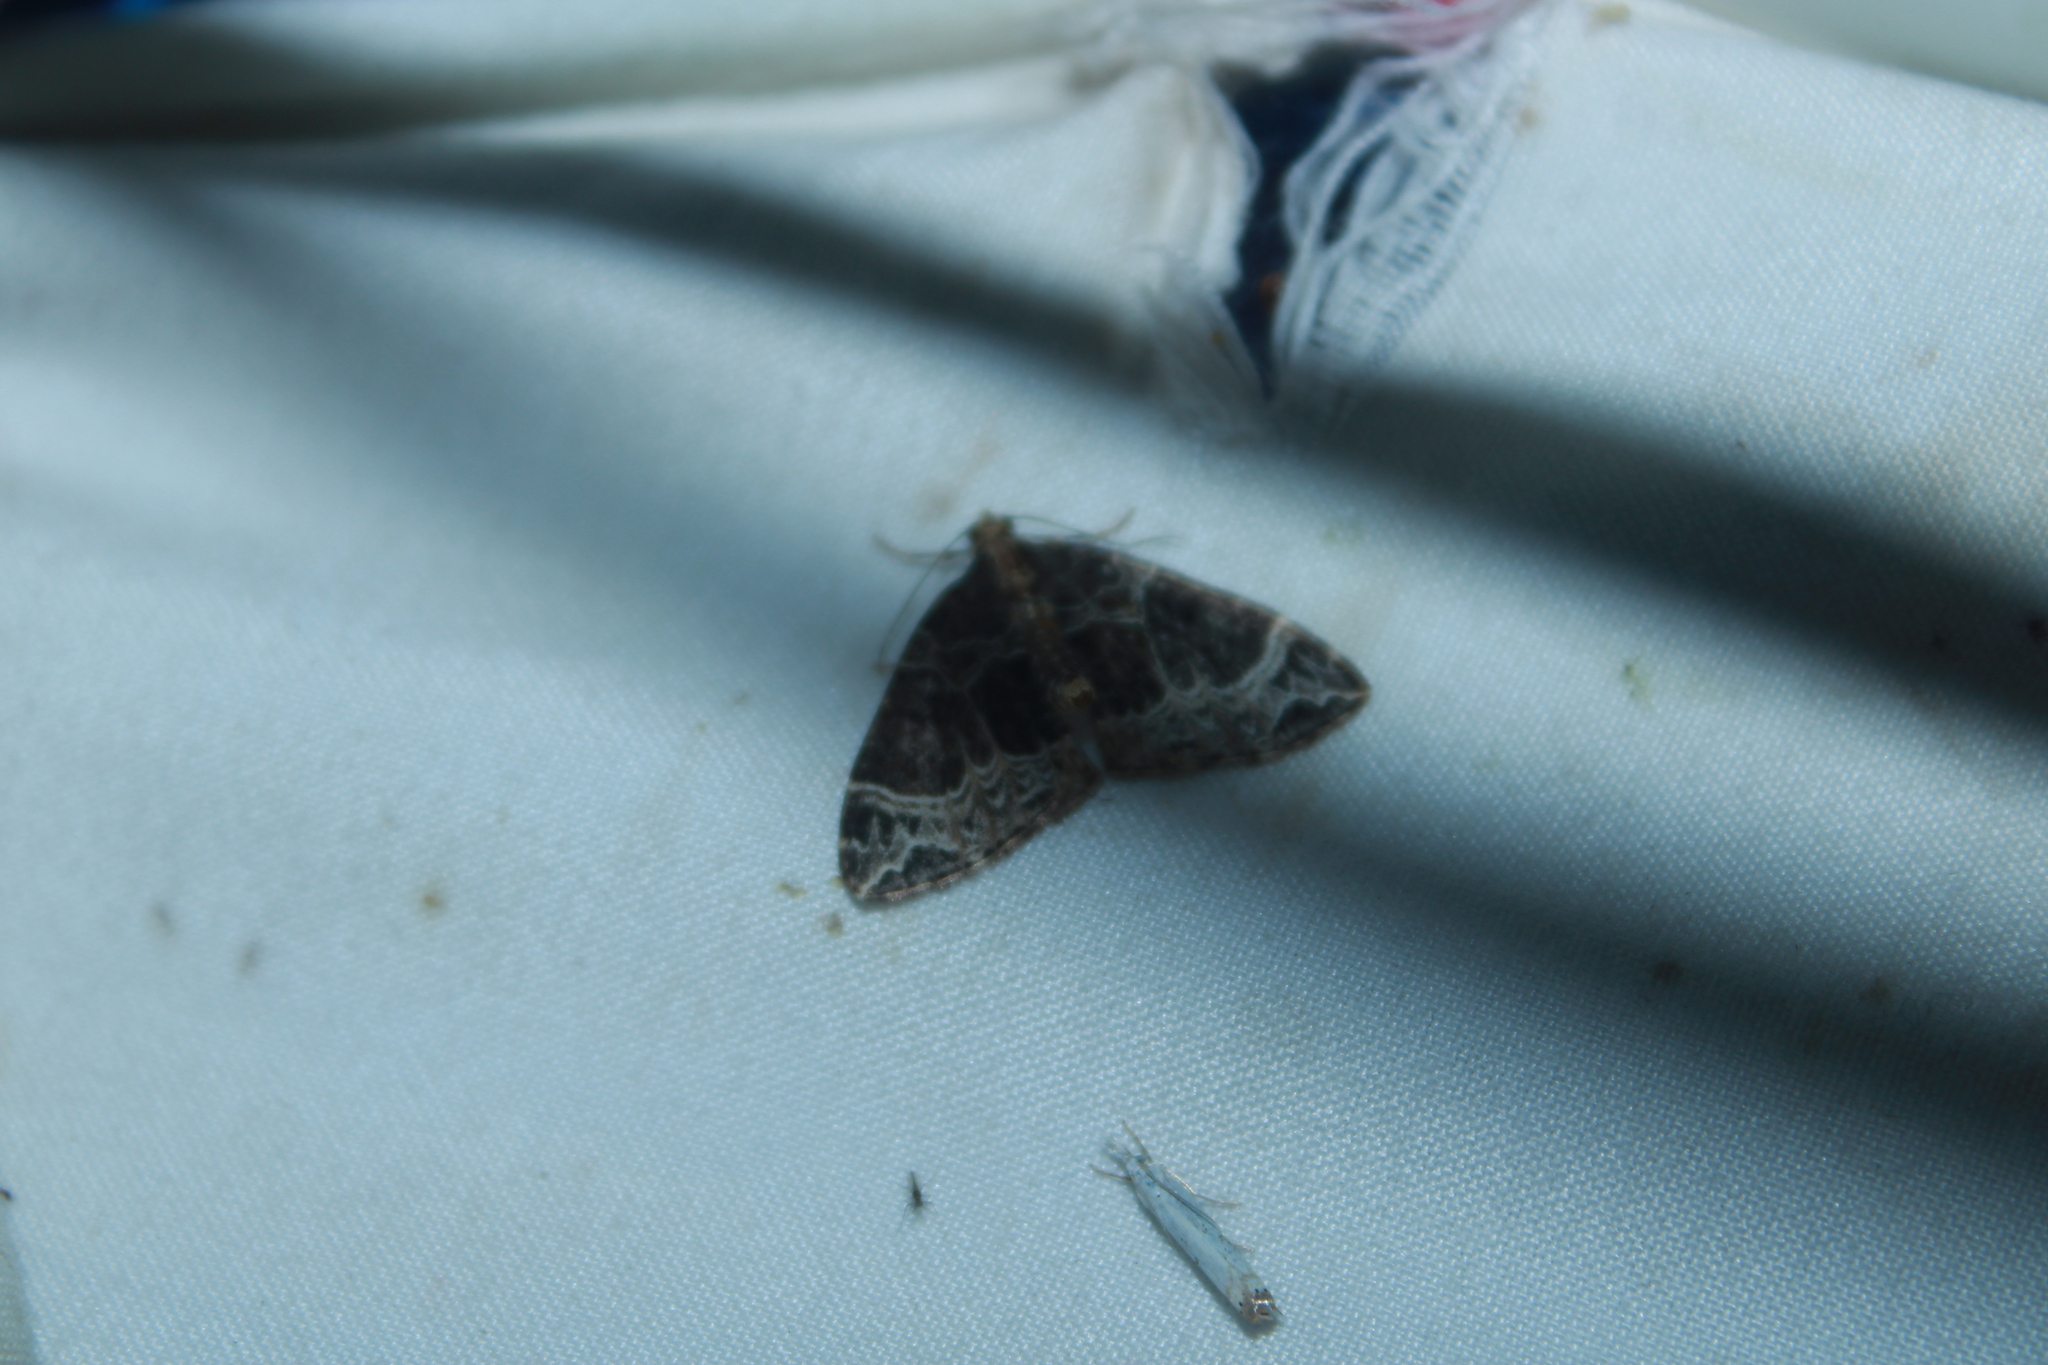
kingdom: Animalia
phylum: Arthropoda
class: Insecta
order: Lepidoptera
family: Geometridae
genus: Ecliptopera
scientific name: Ecliptopera silaceata
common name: Small phoenix
